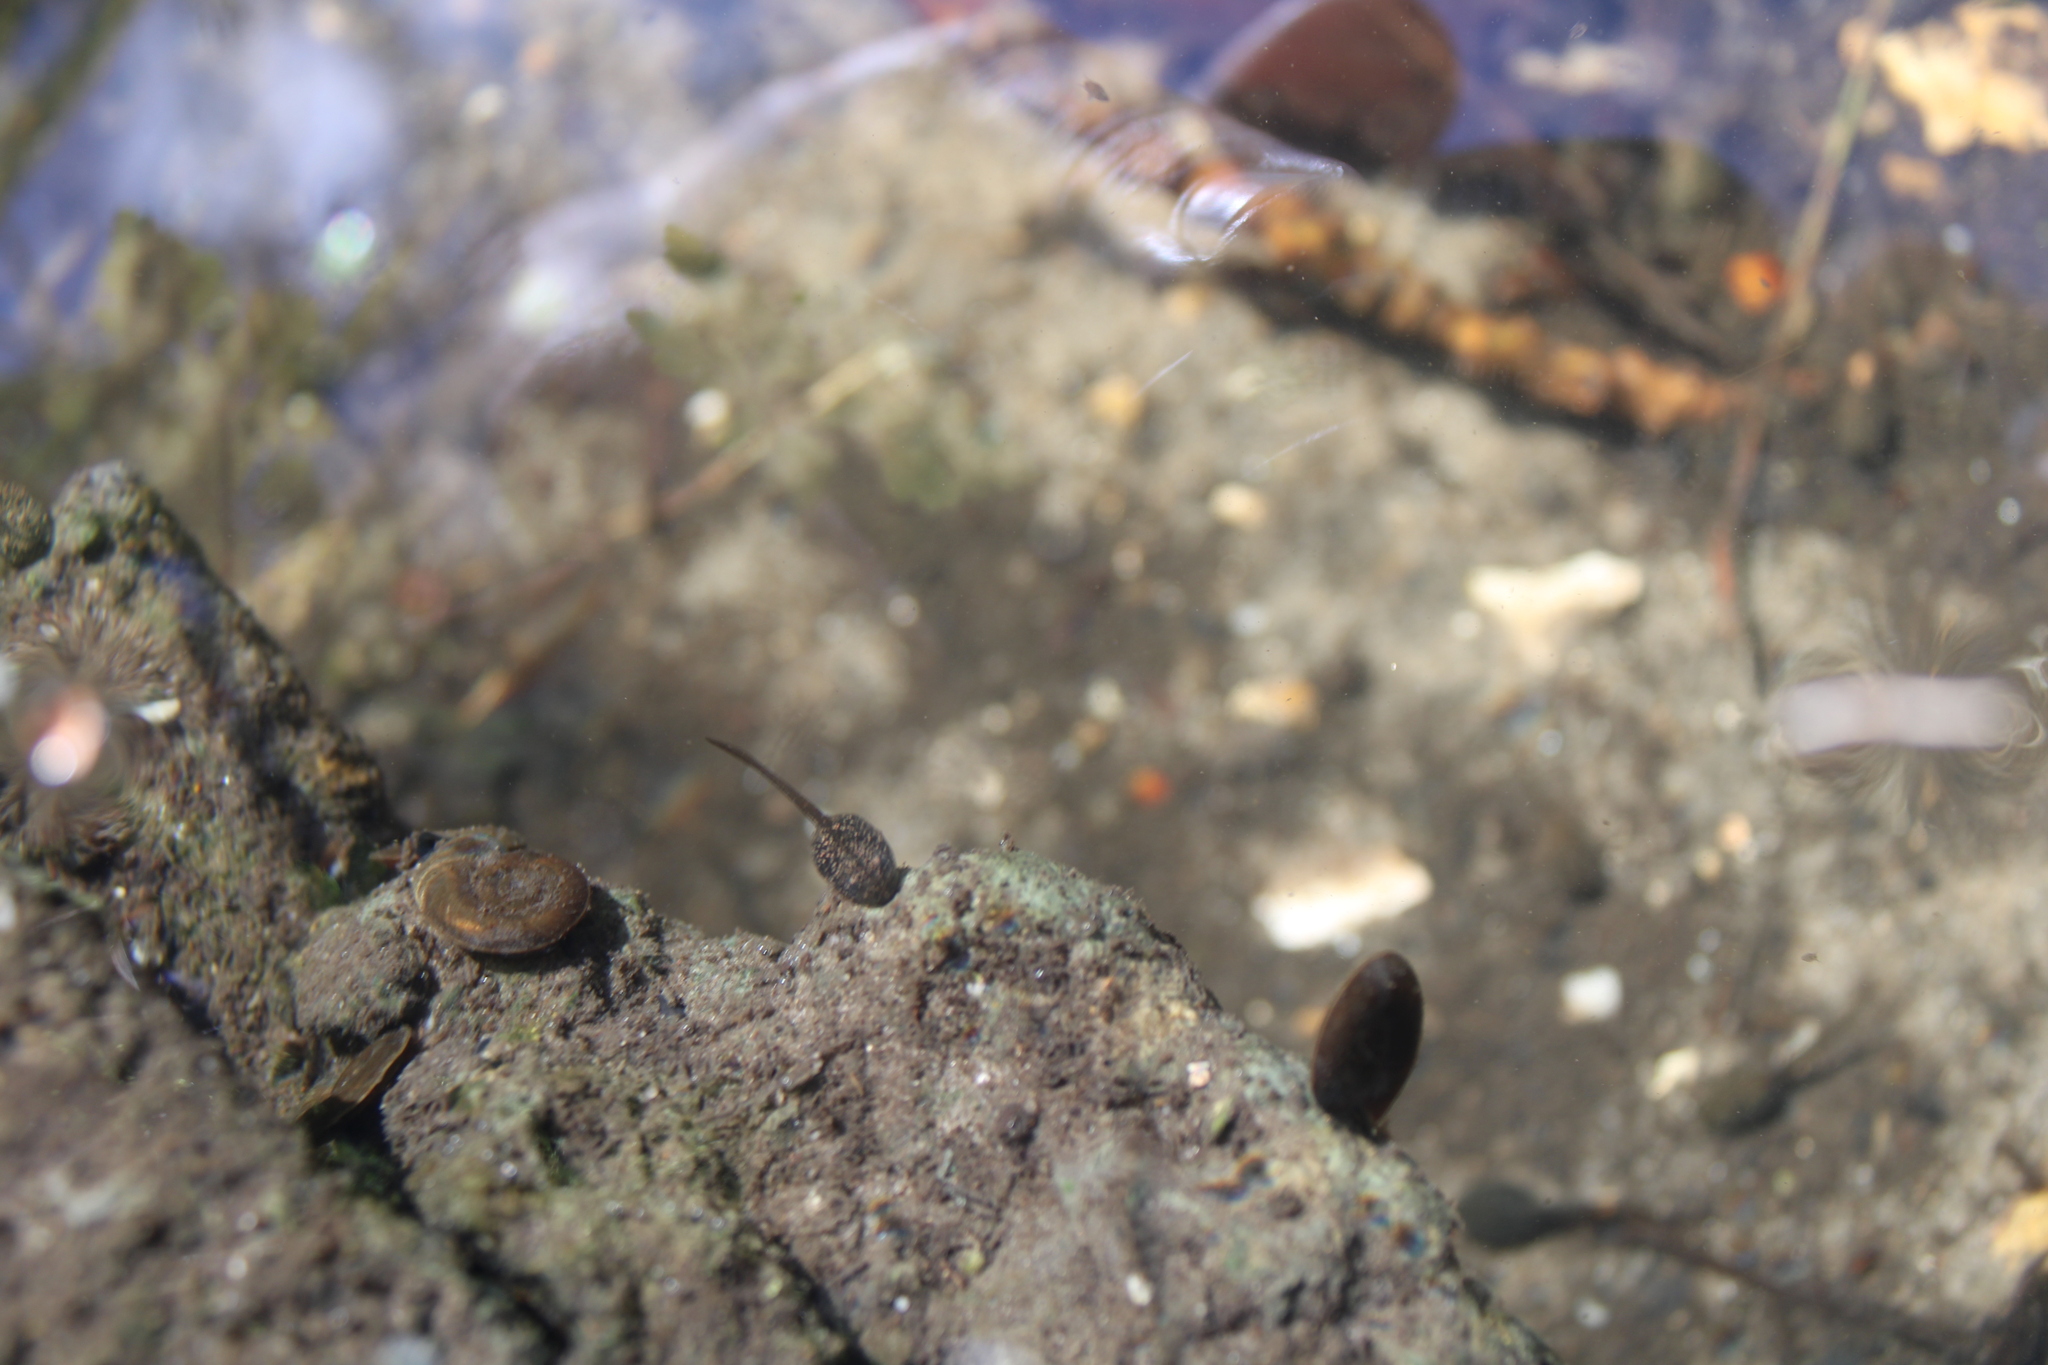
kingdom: Animalia
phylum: Chordata
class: Amphibia
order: Anura
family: Ranidae
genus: Rana
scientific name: Rana temporaria
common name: Common frog
